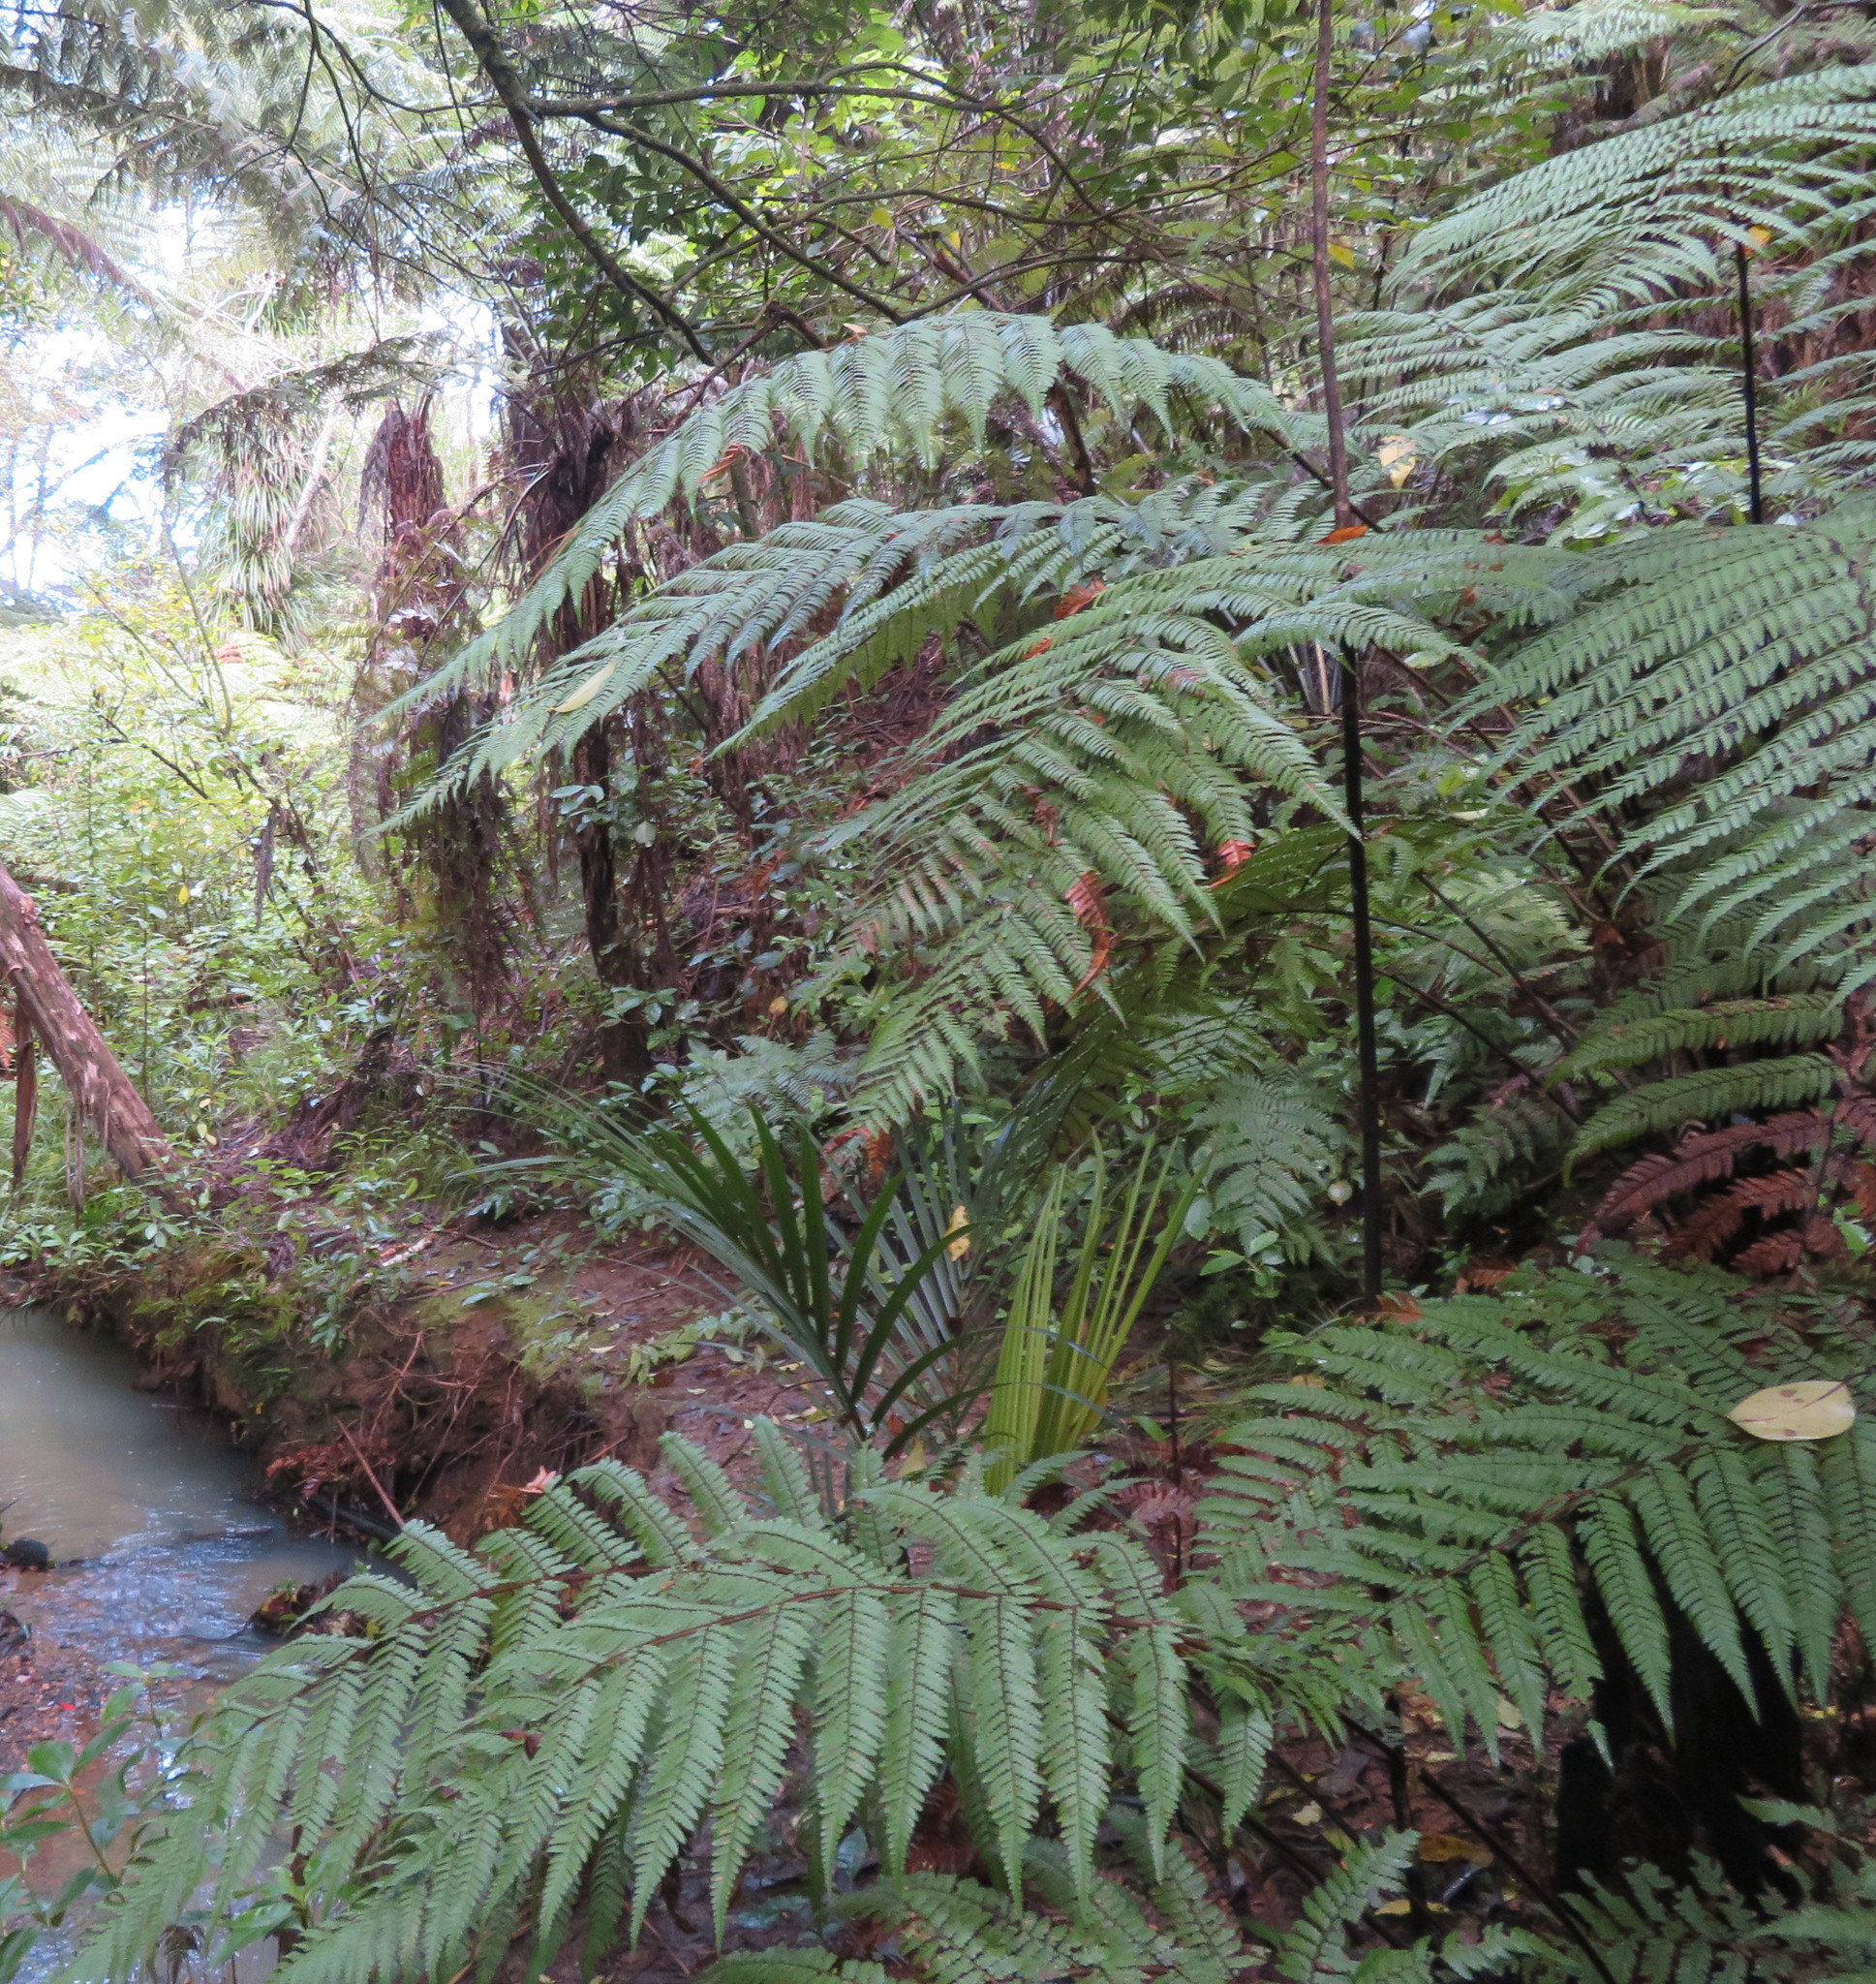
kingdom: Plantae
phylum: Tracheophyta
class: Polypodiopsida
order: Cyatheales
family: Dicksoniaceae
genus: Dicksonia
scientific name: Dicksonia squarrosa
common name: Hard treefern
